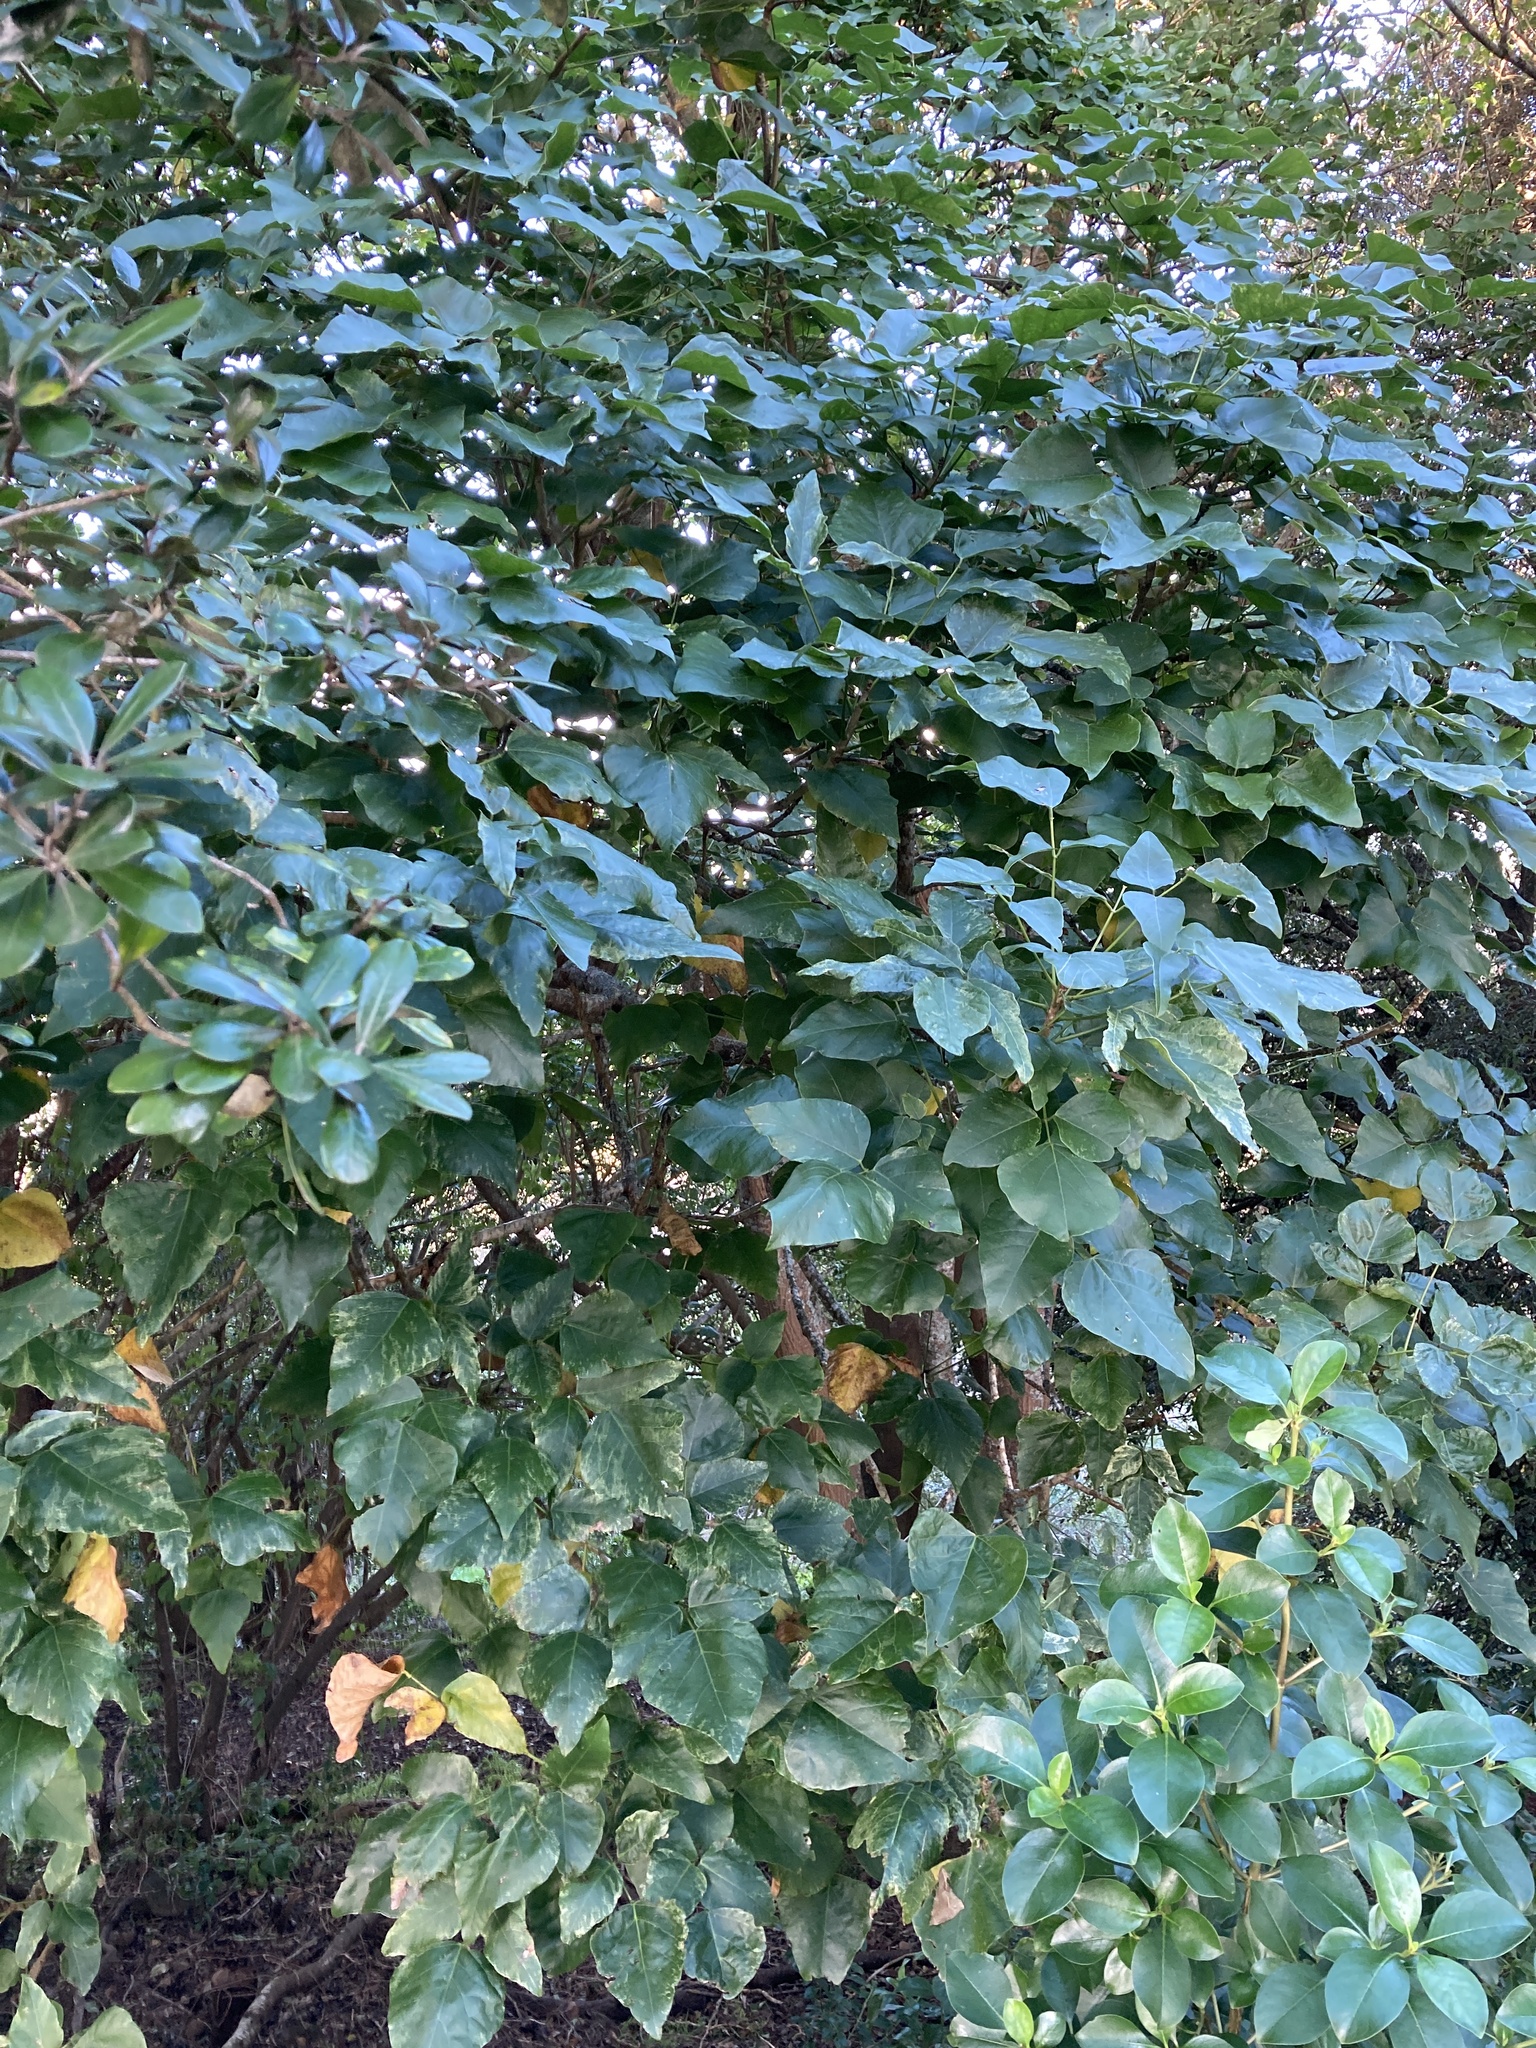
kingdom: Plantae
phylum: Tracheophyta
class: Magnoliopsida
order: Fabales
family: Fabaceae
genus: Erythrina
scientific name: Erythrina lysistemon
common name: Common coral tree
